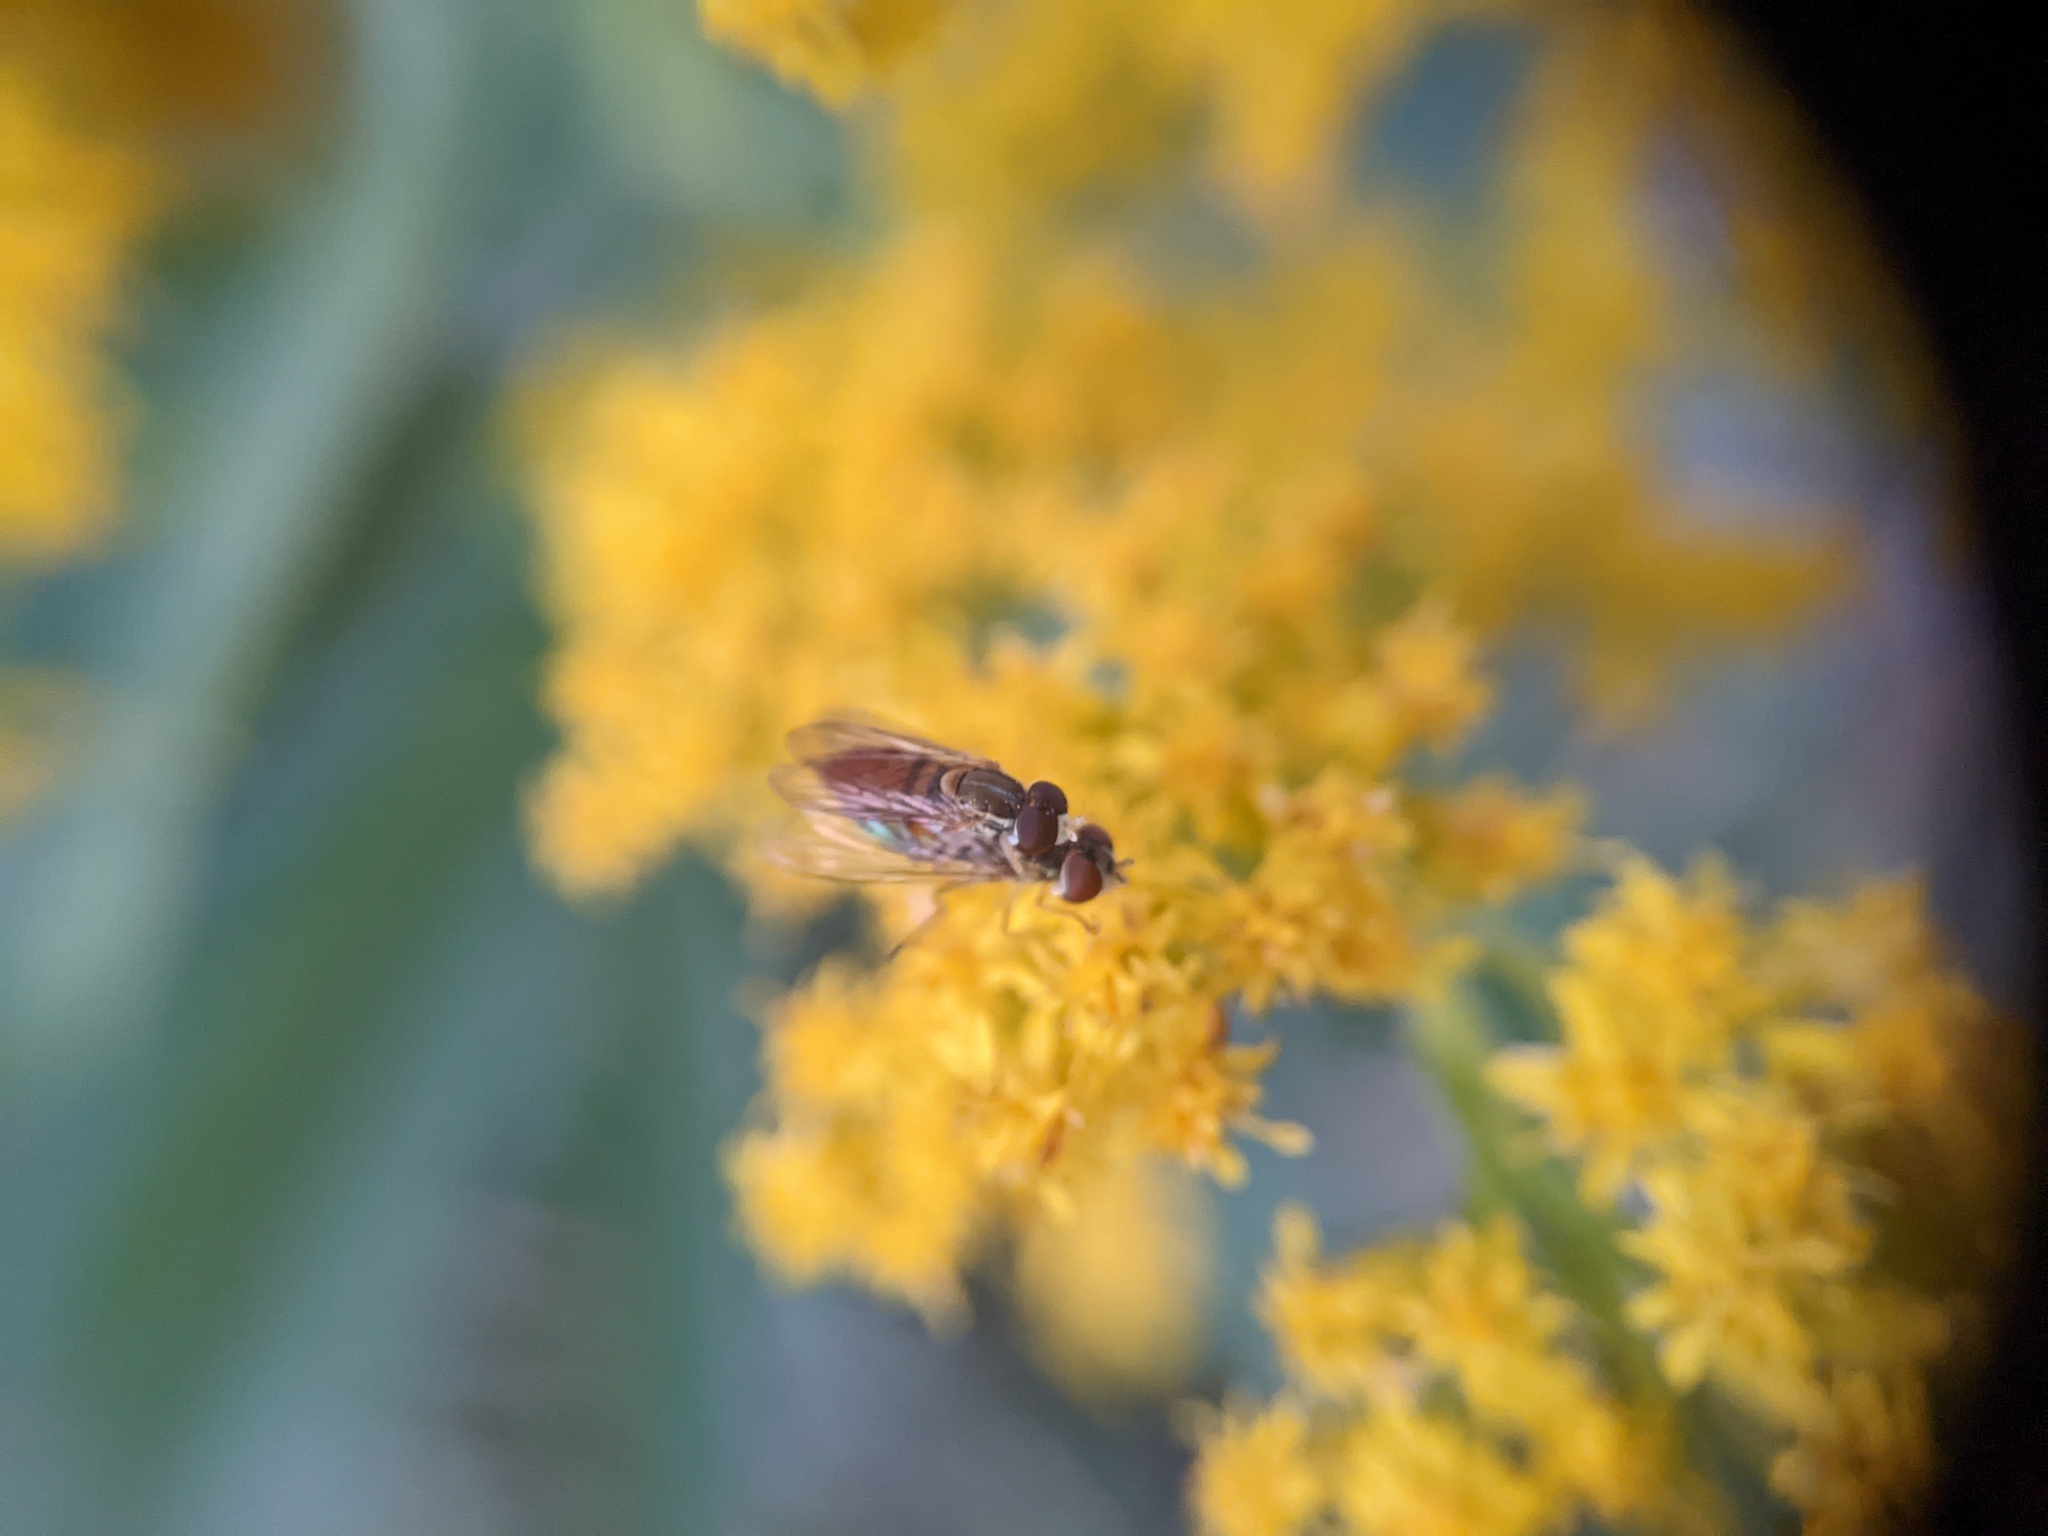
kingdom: Animalia
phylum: Arthropoda
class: Insecta
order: Diptera
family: Syrphidae
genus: Toxomerus
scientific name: Toxomerus marginatus
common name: Syrphid fly
